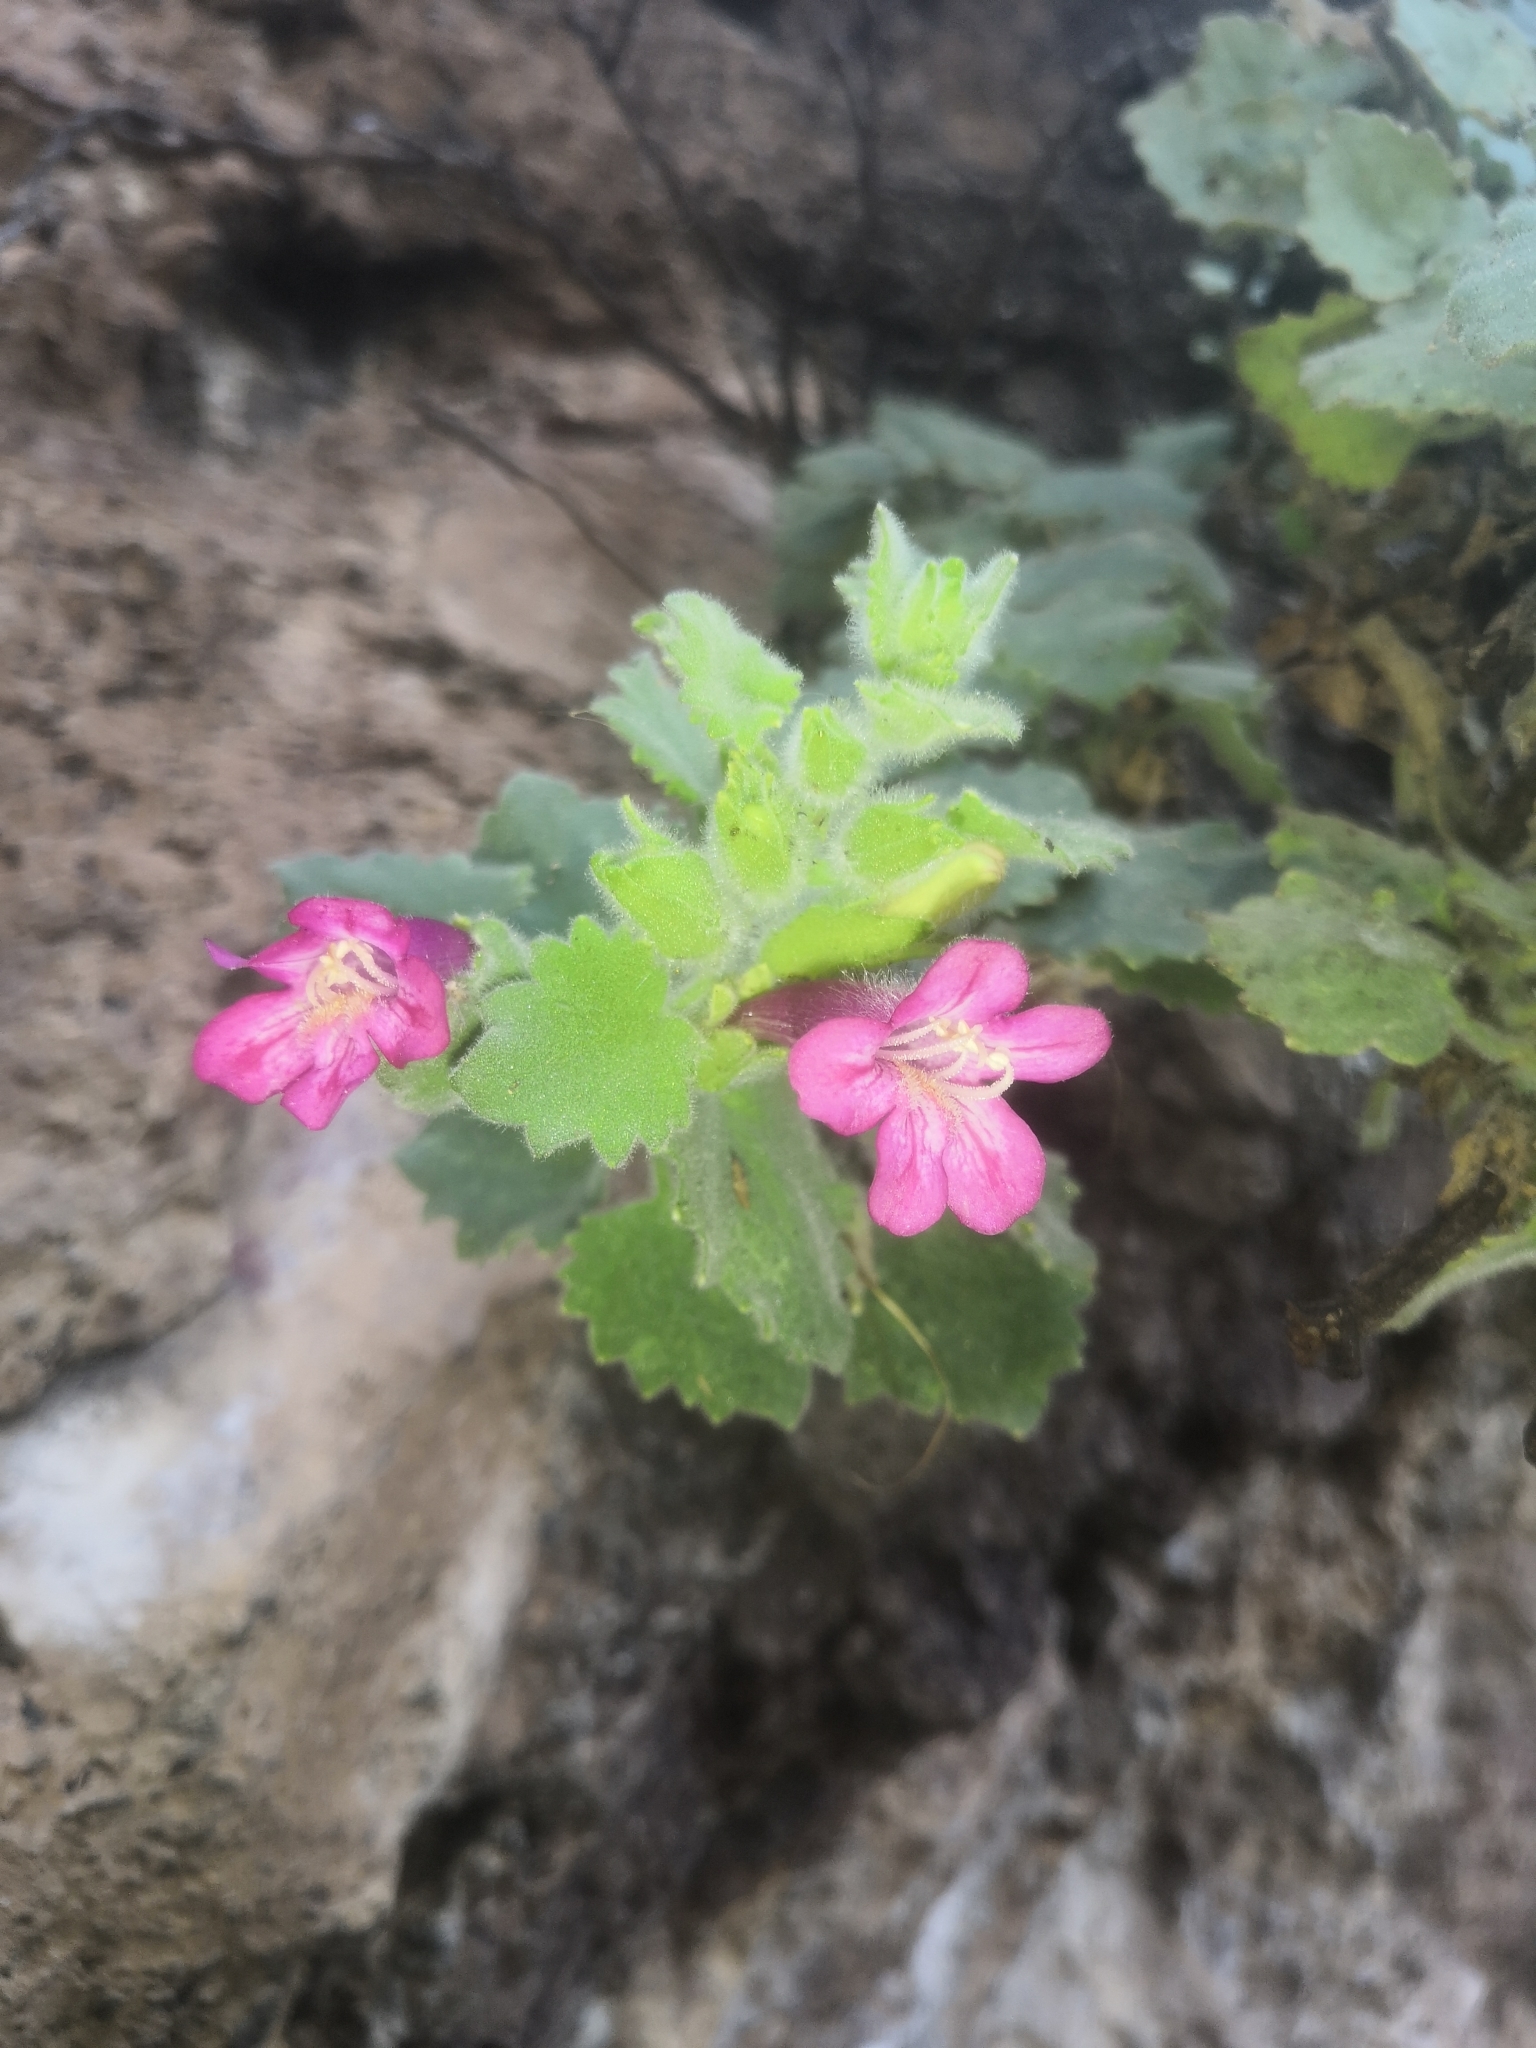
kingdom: Plantae
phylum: Tracheophyta
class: Magnoliopsida
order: Lamiales
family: Plantaginaceae
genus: Mabrya
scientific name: Mabrya rosei
